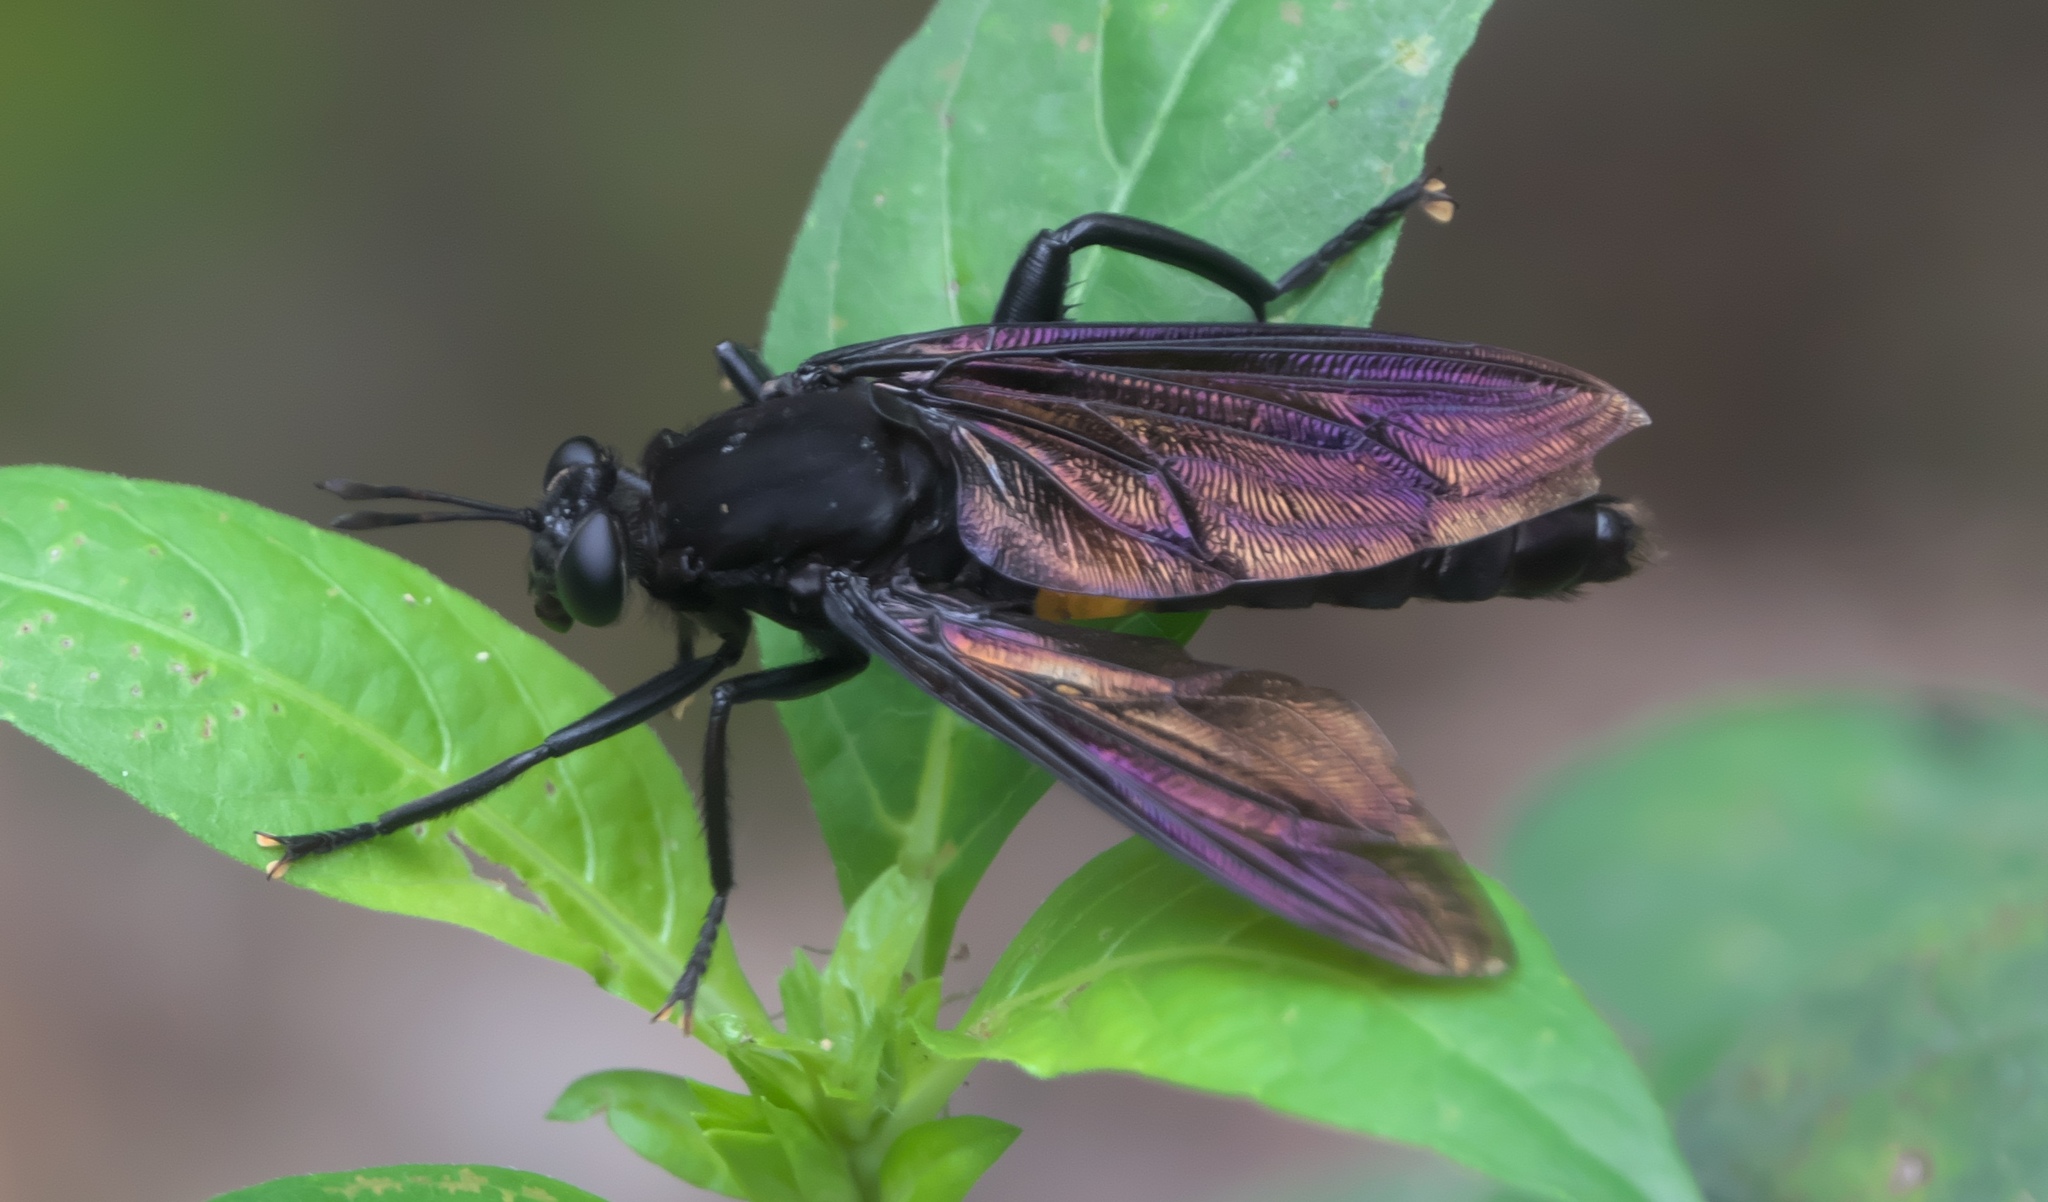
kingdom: Animalia
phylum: Arthropoda
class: Insecta
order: Diptera
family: Mydidae
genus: Mydas
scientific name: Mydas clavatus
